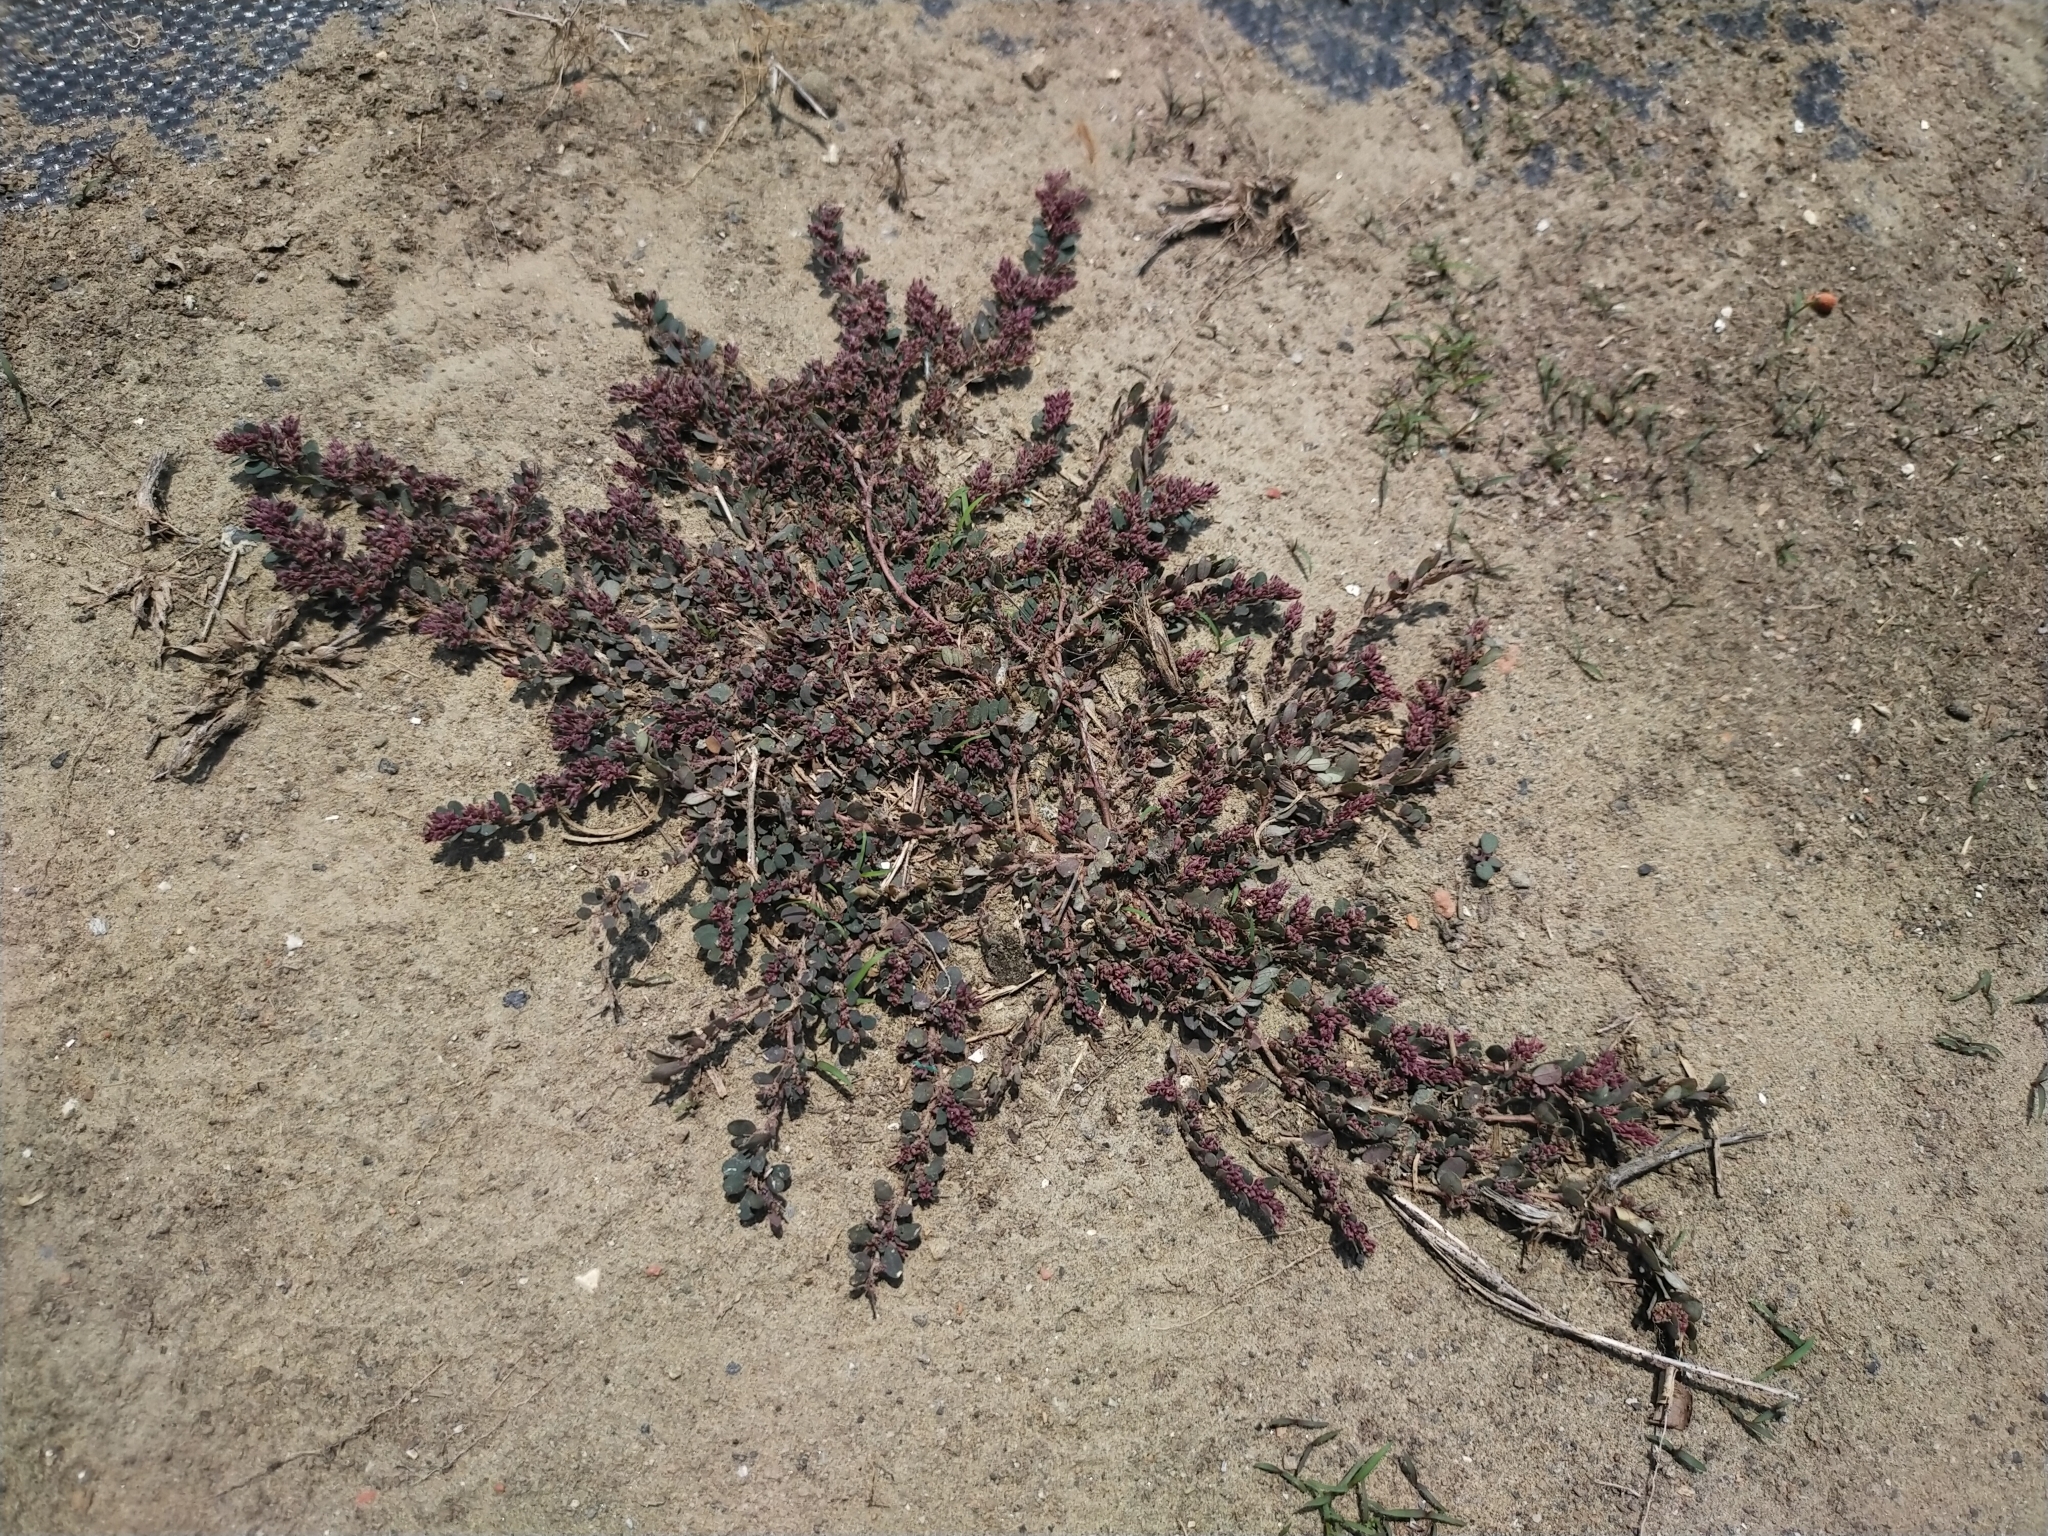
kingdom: Plantae
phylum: Tracheophyta
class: Magnoliopsida
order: Malpighiales
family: Euphorbiaceae
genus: Euphorbia
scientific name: Euphorbia prostrata
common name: Prostrate sandmat
